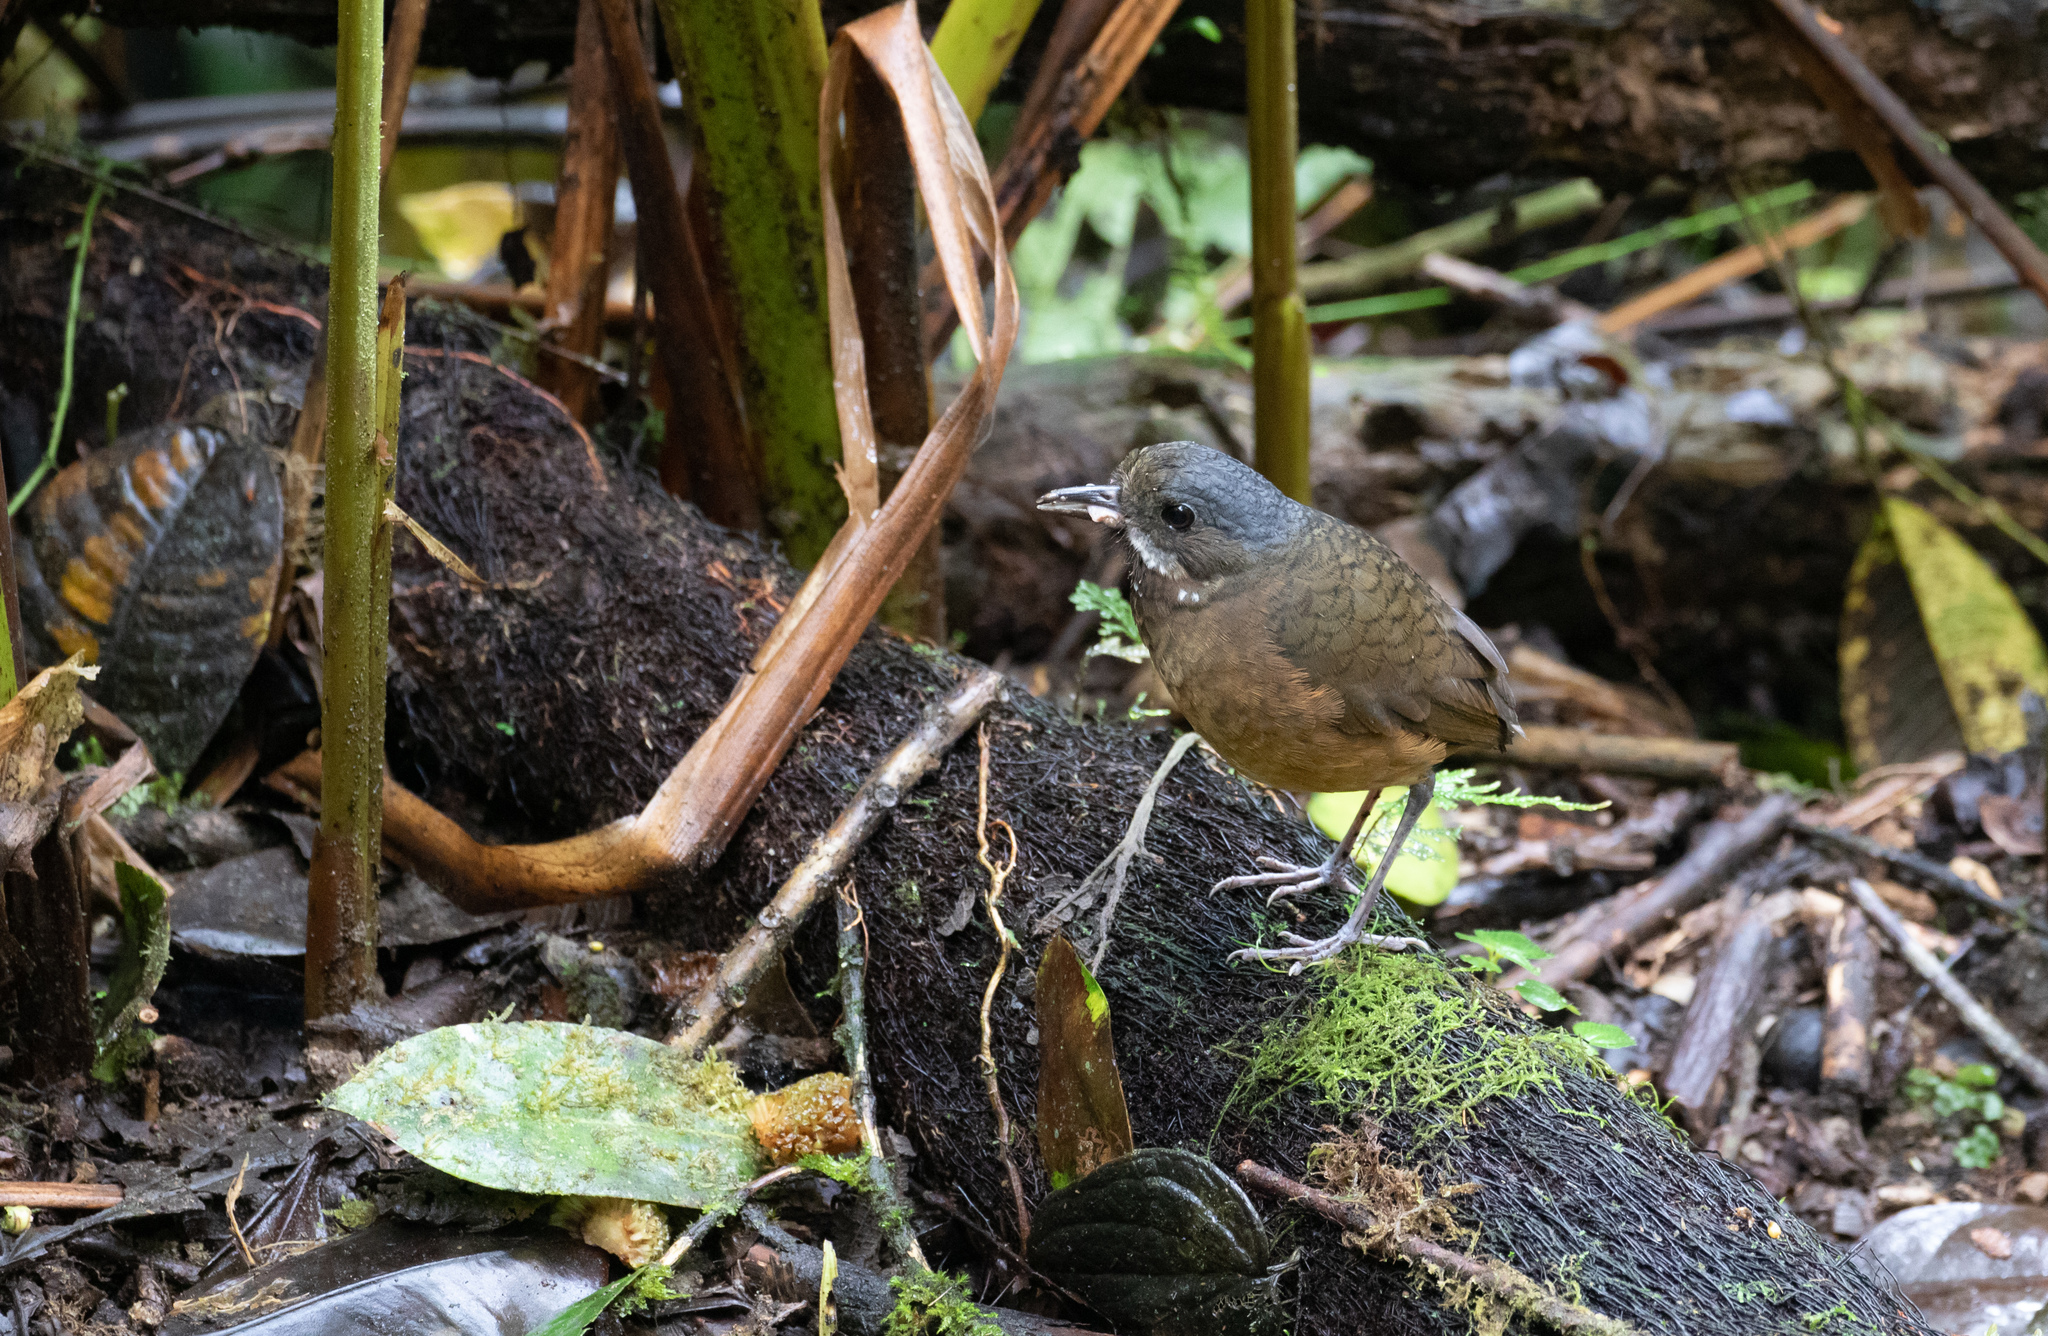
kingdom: Animalia
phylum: Chordata
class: Aves
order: Passeriformes
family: Grallariidae
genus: Grallaria
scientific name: Grallaria alleni
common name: Moustached antpitta
